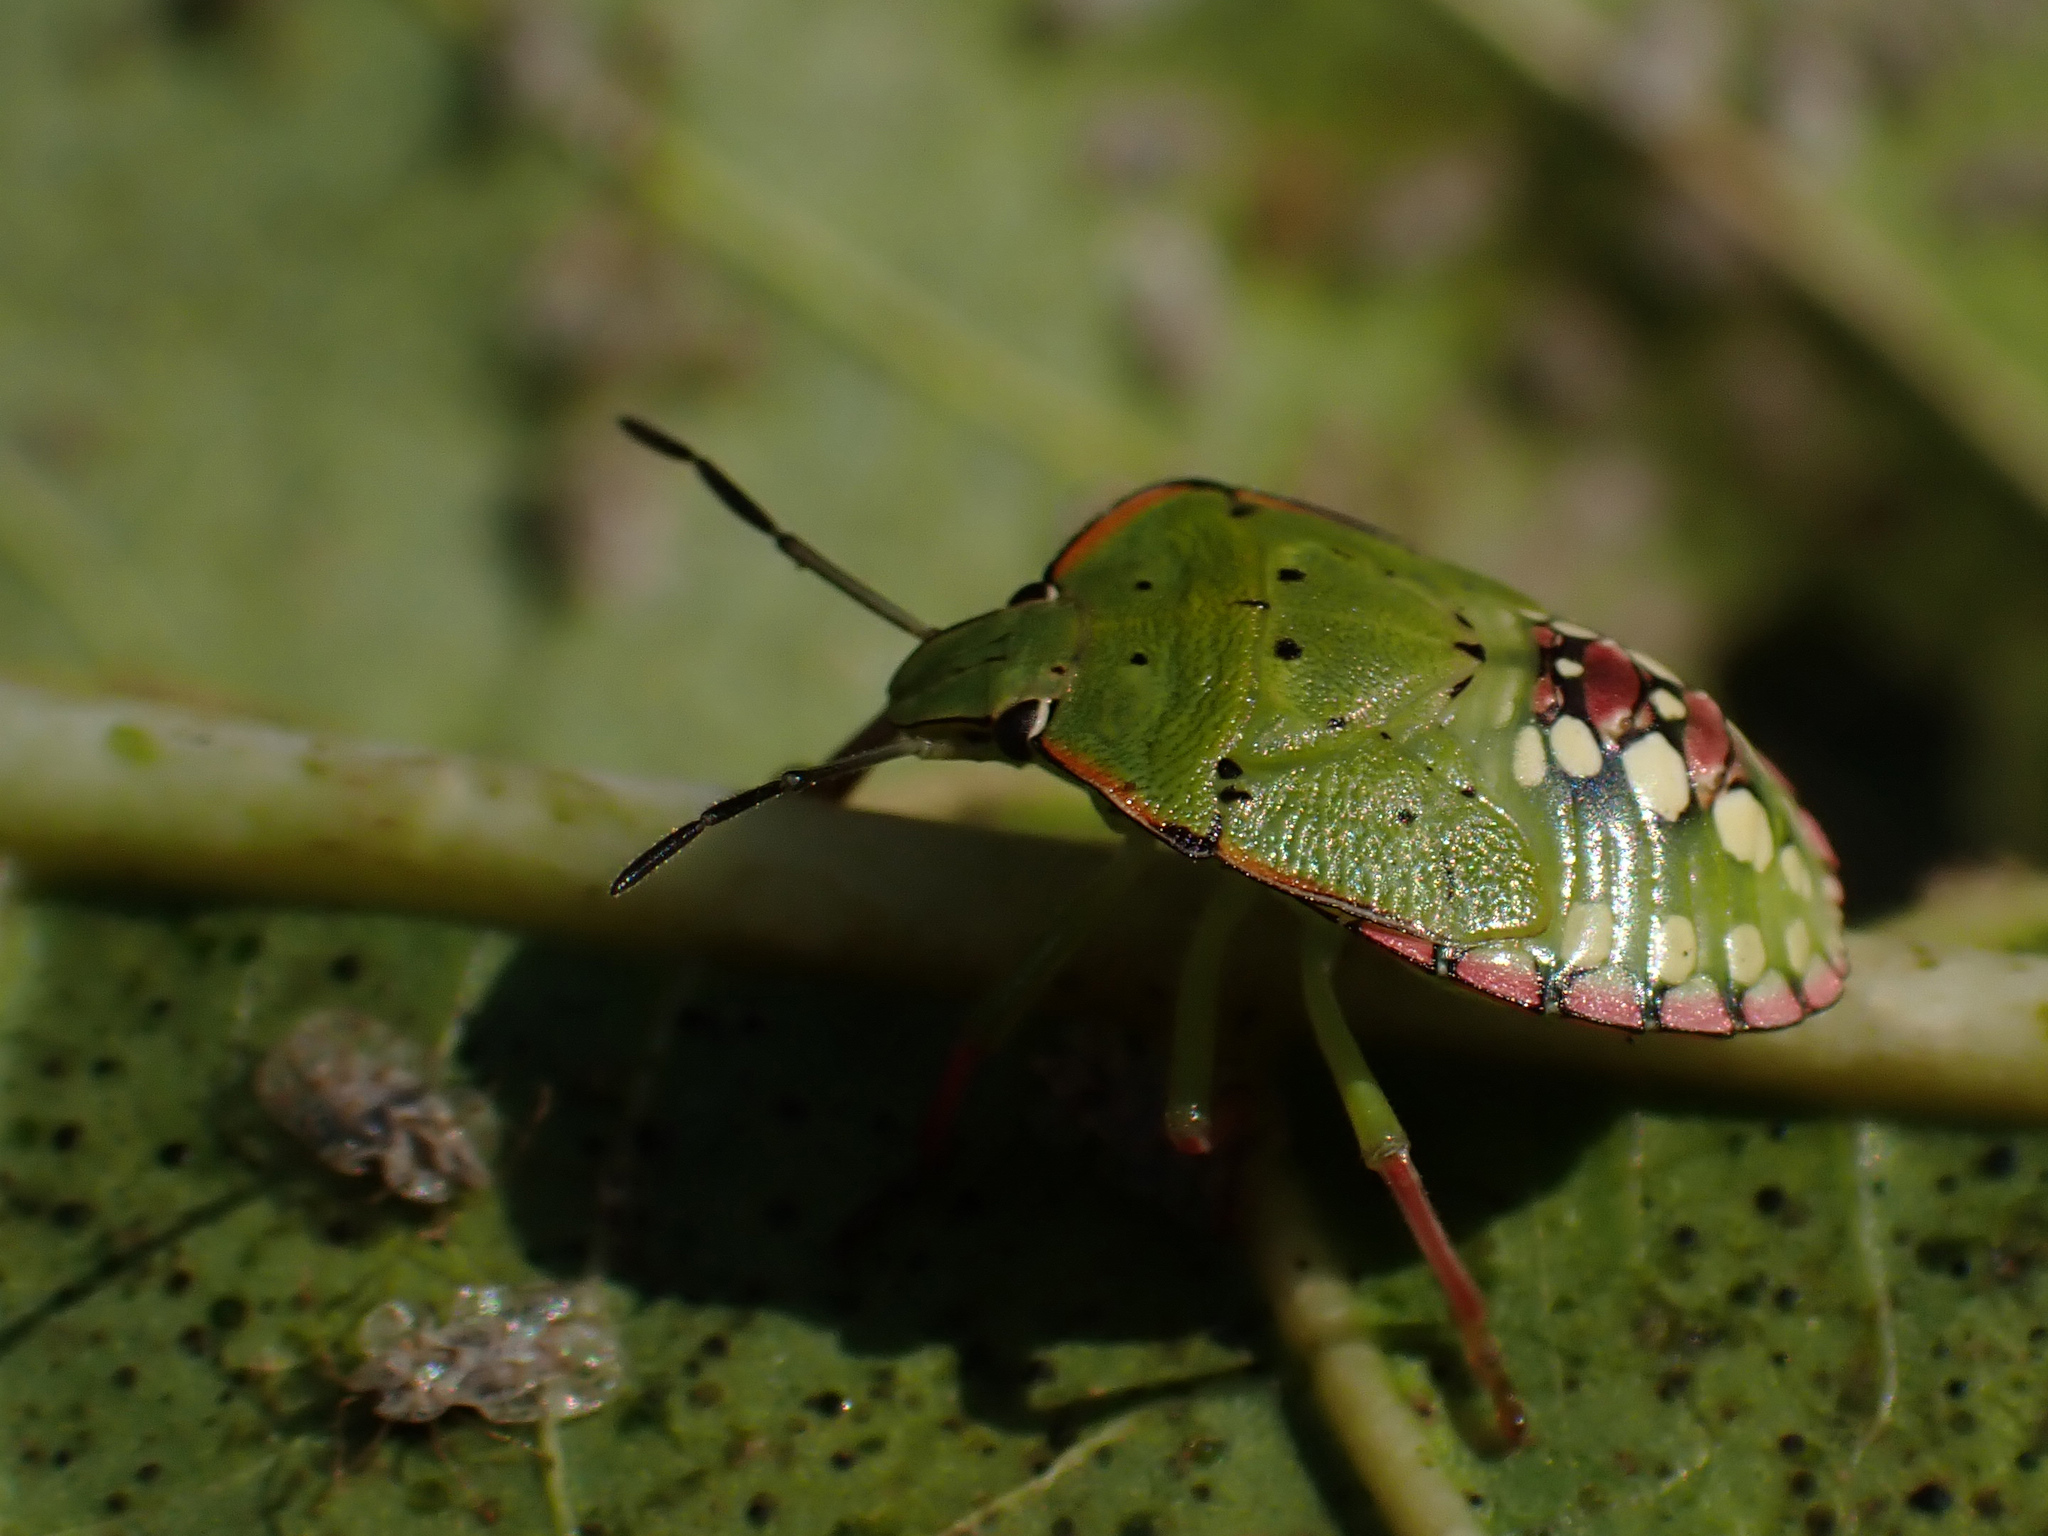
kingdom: Animalia
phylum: Arthropoda
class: Insecta
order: Hemiptera
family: Pentatomidae
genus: Nezara
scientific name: Nezara viridula
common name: Southern green stink bug
